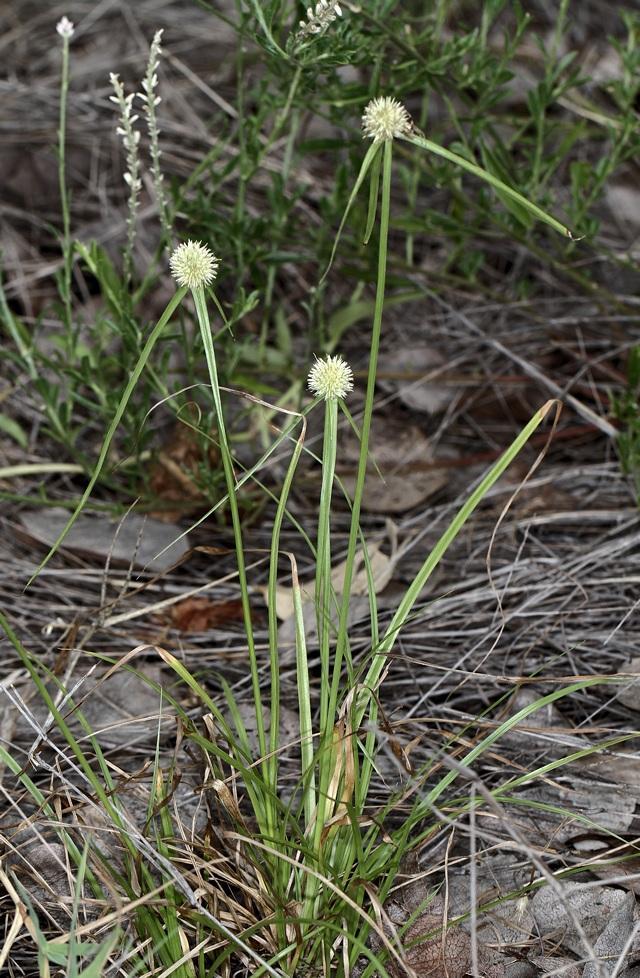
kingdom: Plantae
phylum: Tracheophyta
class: Liliopsida
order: Poales
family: Cyperaceae
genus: Cyperus
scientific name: Cyperus alatus
